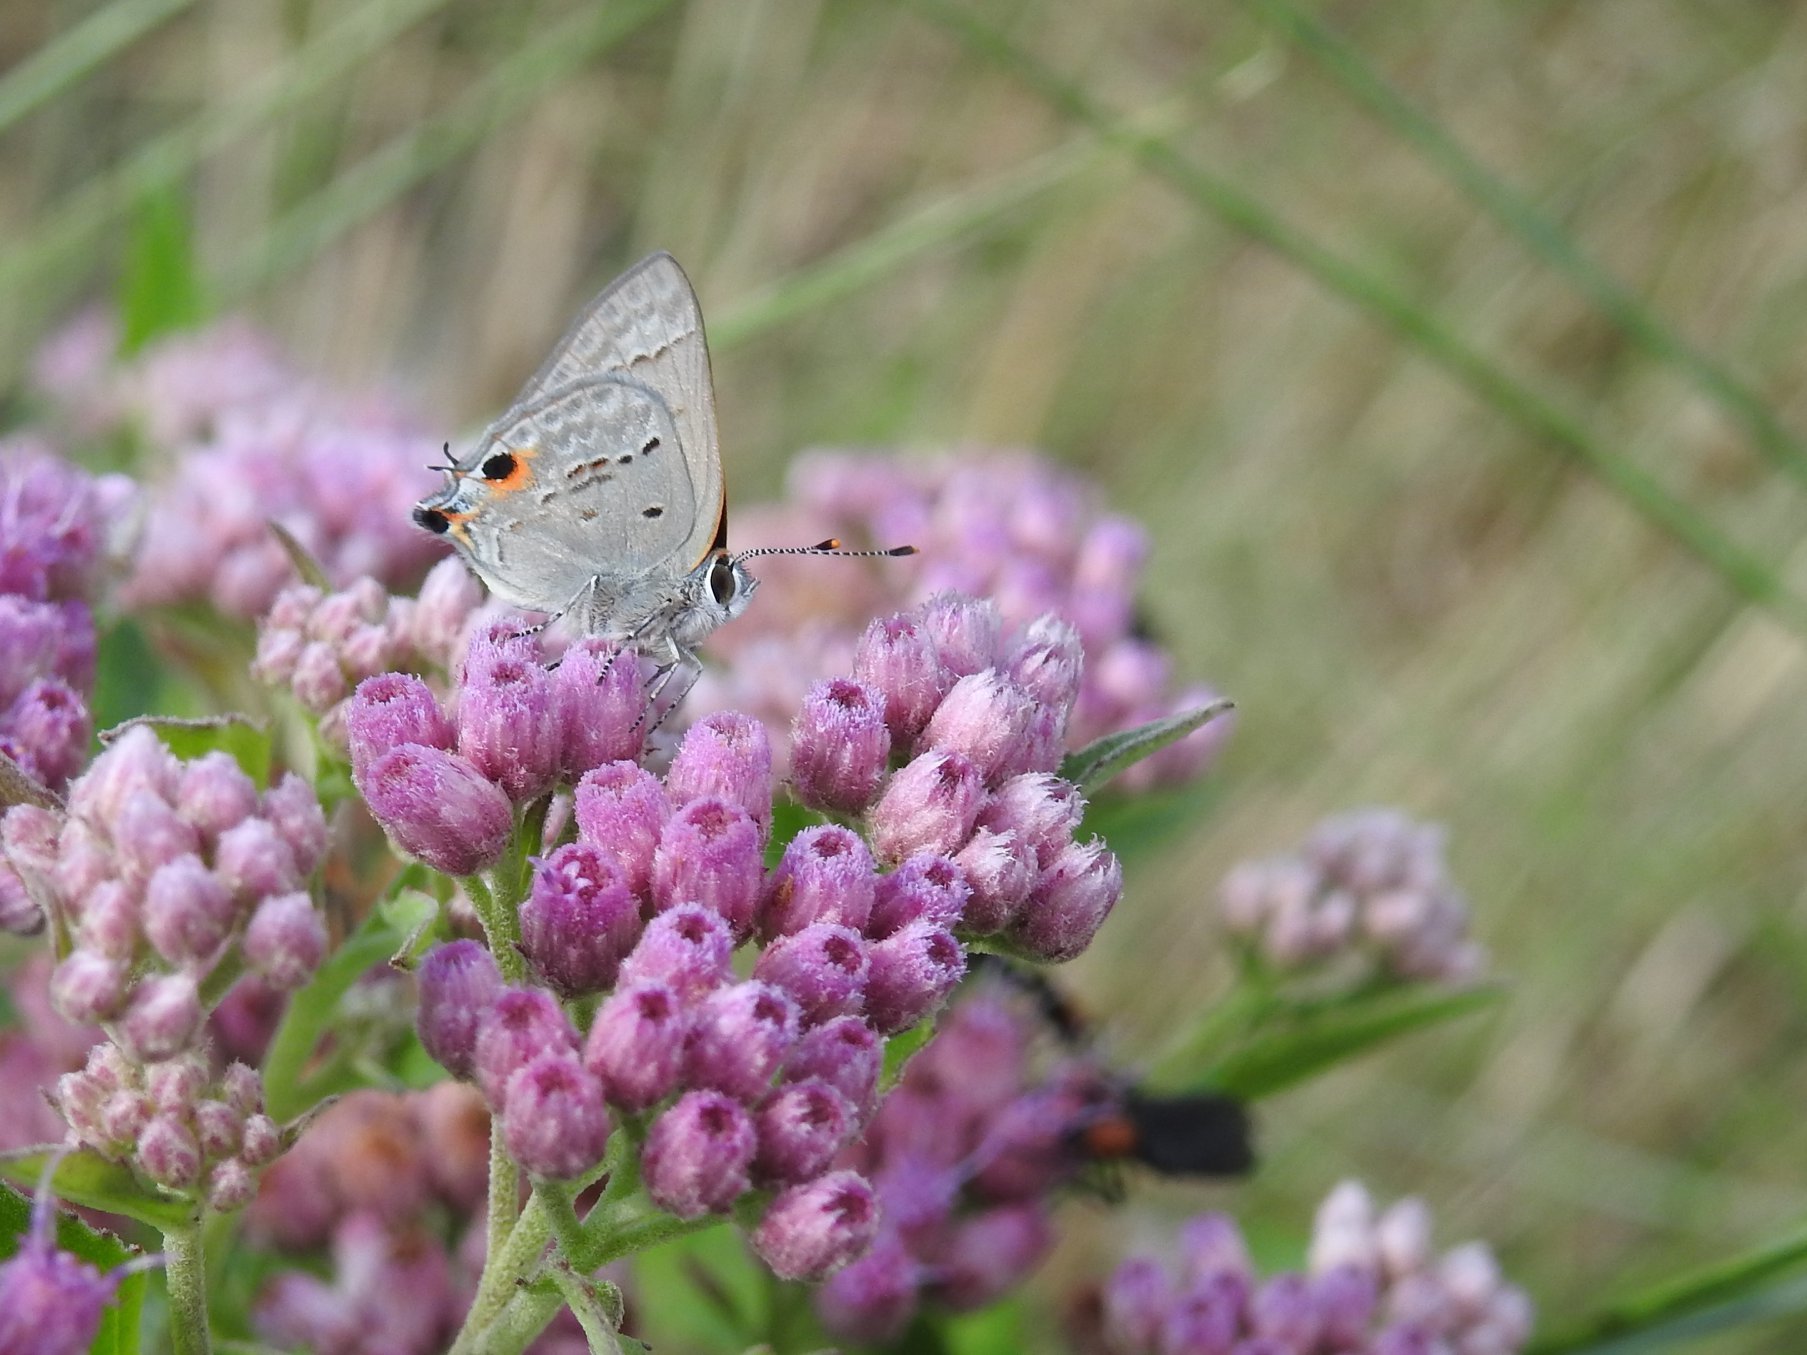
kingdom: Animalia
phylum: Arthropoda
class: Insecta
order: Lepidoptera
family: Lycaenidae
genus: Callicista
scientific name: Callicista columella
